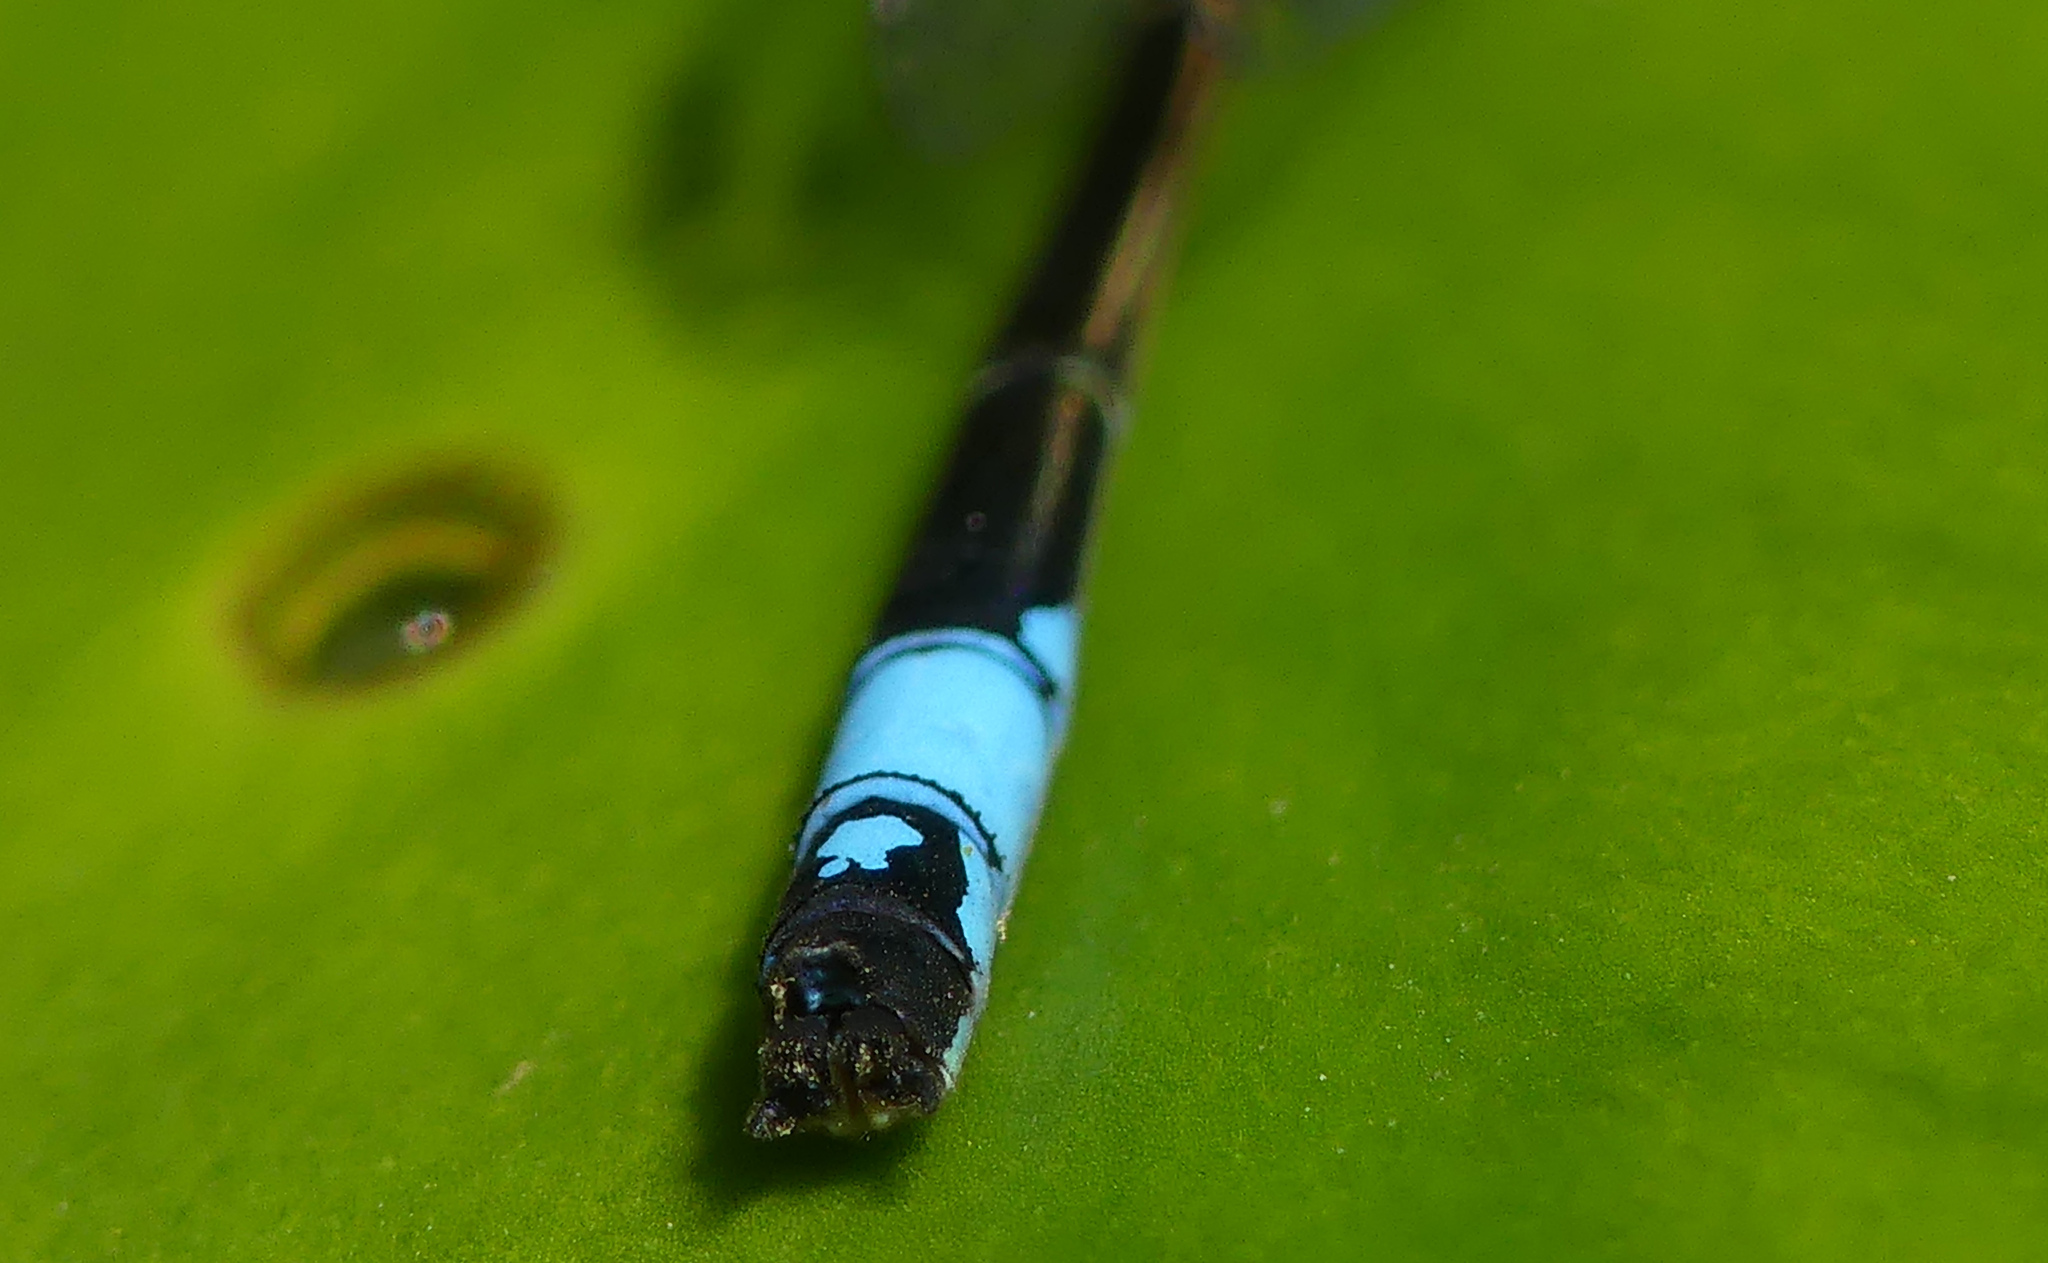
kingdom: Animalia
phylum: Arthropoda
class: Insecta
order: Odonata
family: Coenagrionidae
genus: Ischnura
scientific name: Ischnura elegans
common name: Blue-tailed damselfly
